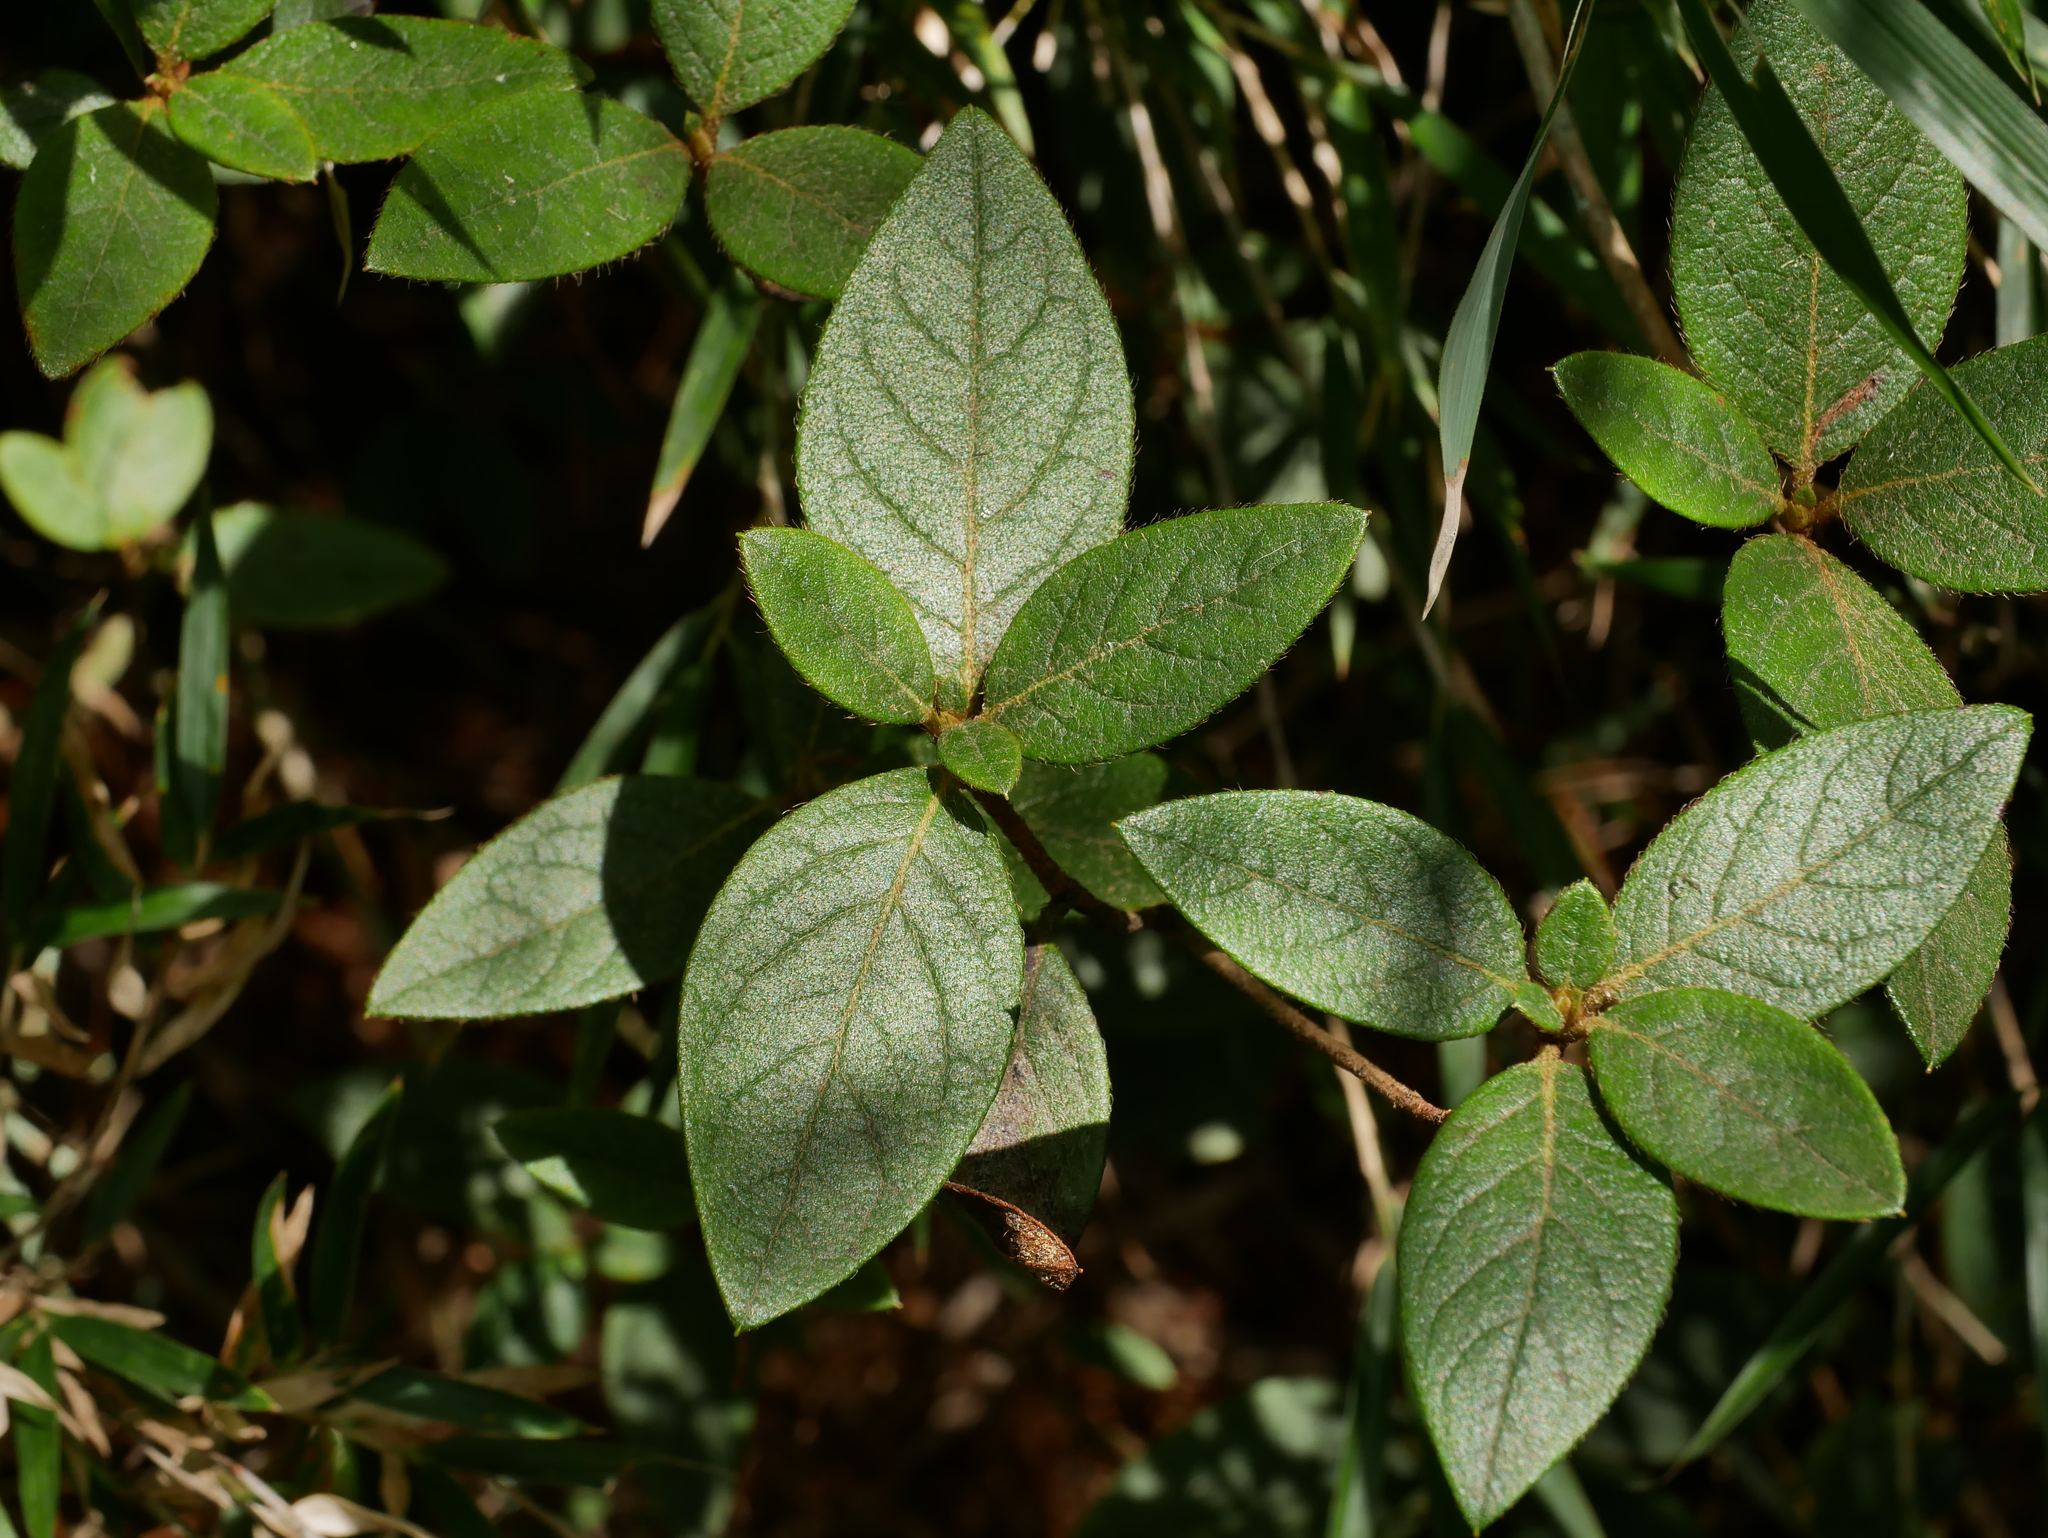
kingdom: Plantae
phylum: Tracheophyta
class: Magnoliopsida
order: Ericales
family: Ericaceae
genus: Rhododendron
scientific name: Rhododendron rubropilosum
